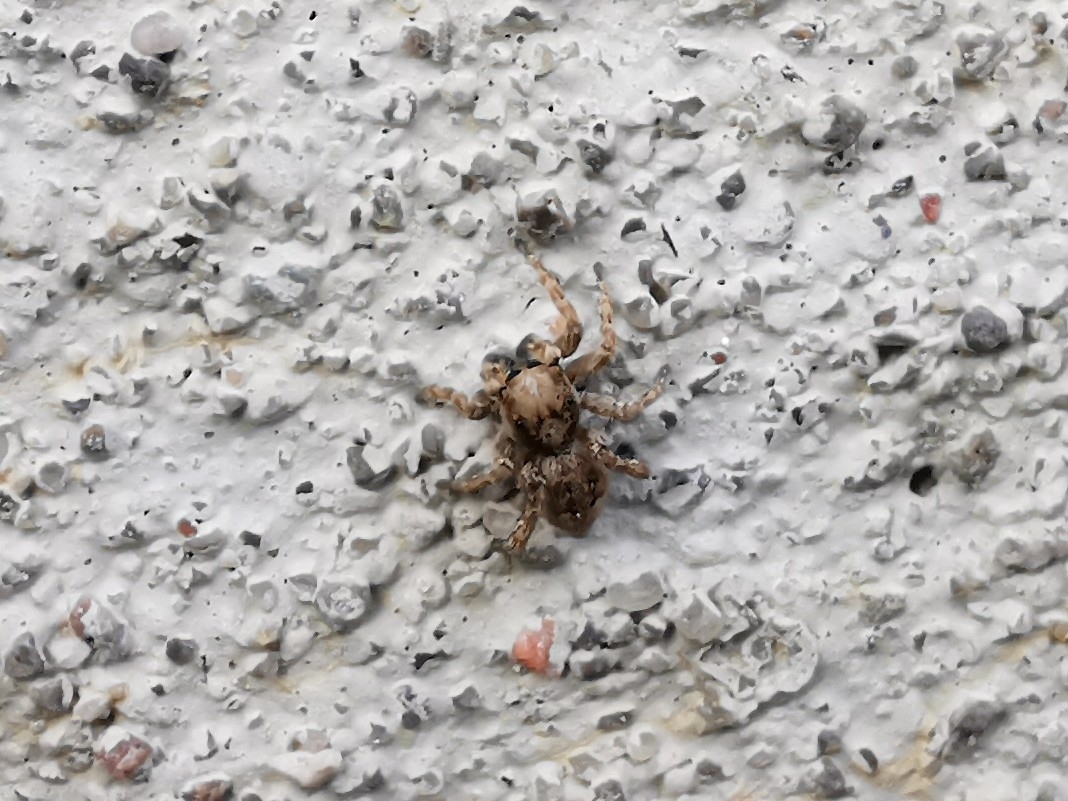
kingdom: Animalia
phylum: Arthropoda
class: Arachnida
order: Araneae
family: Salticidae
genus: Attulus
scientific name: Attulus fasciger
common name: Asiatic wall jumping spider
